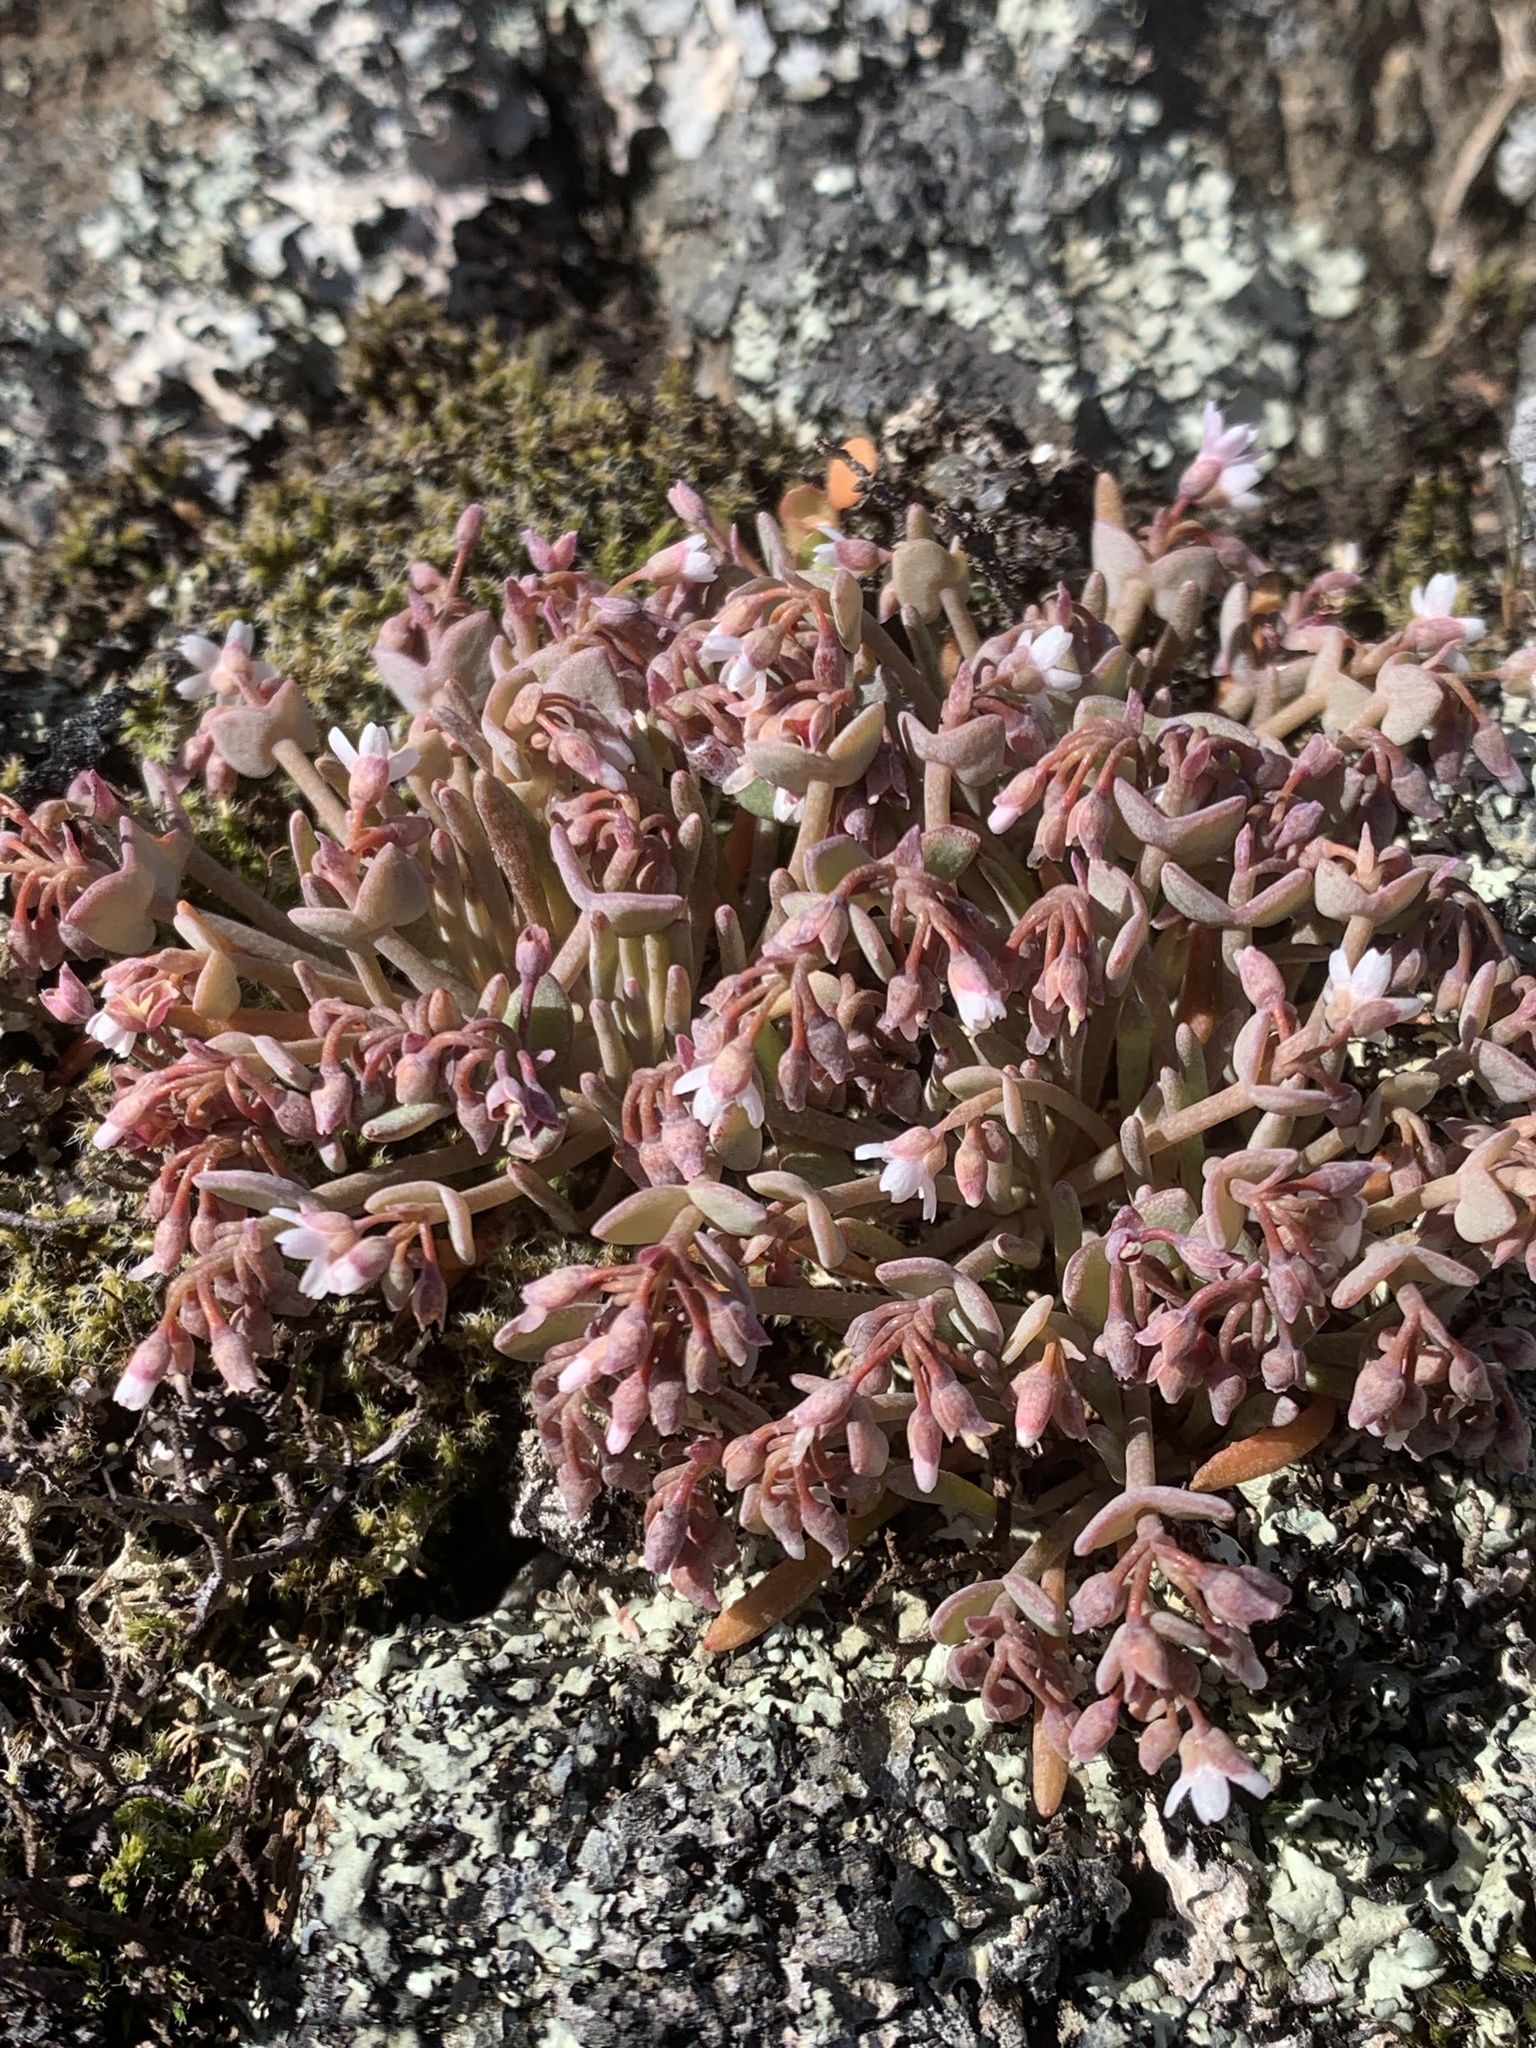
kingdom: Plantae
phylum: Tracheophyta
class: Magnoliopsida
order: Caryophyllales
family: Montiaceae
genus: Claytonia
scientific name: Claytonia exigua
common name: Pale spring beauty
